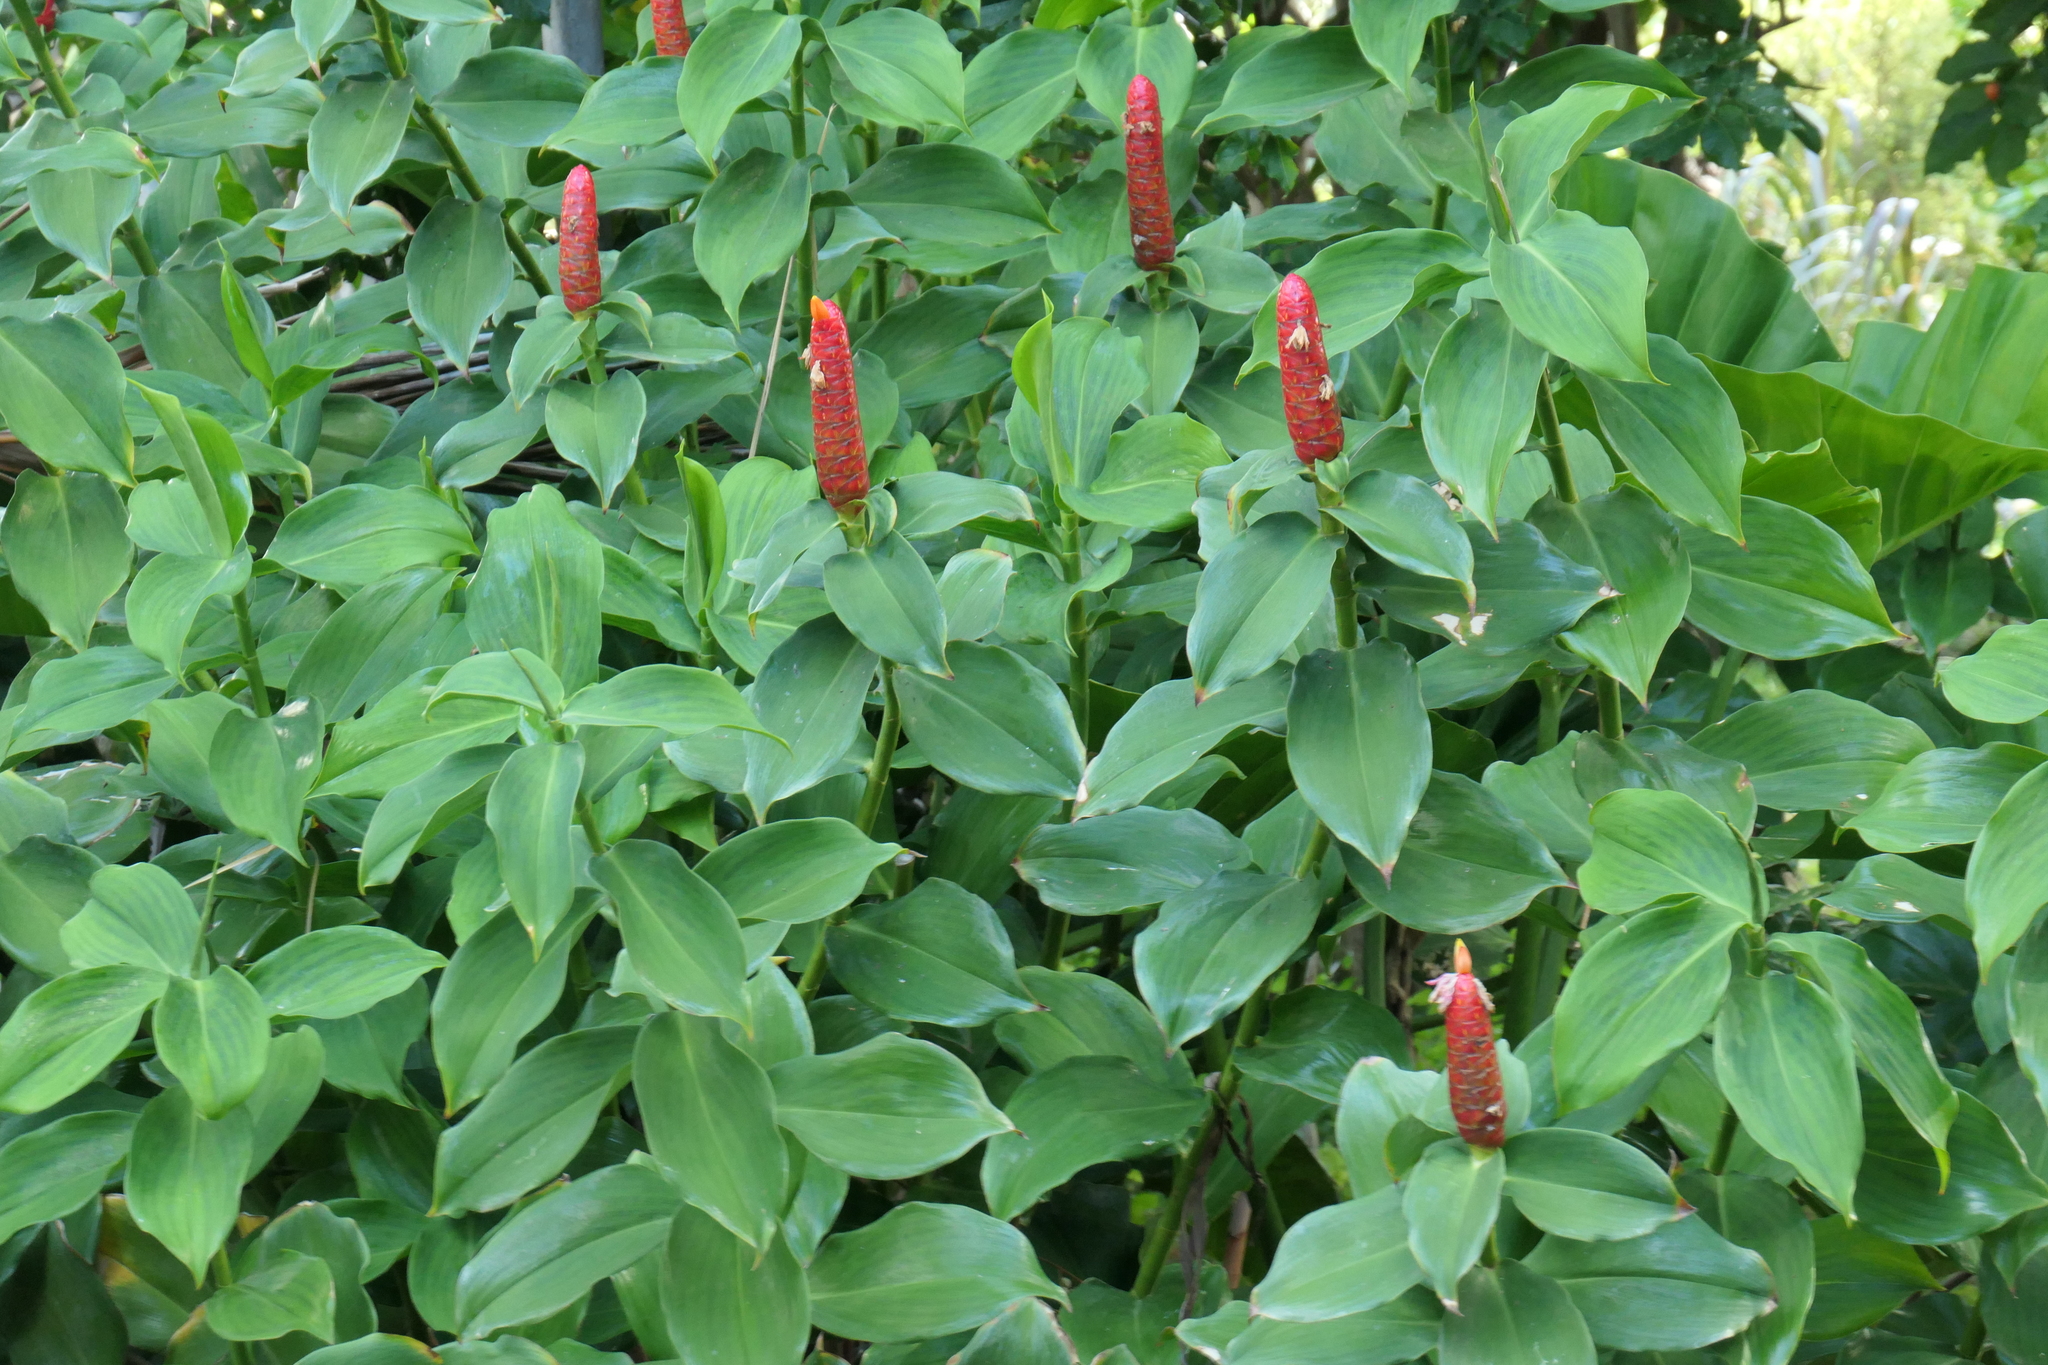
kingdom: Plantae
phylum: Tracheophyta
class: Liliopsida
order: Zingiberales
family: Costaceae
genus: Costus
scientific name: Costus woodsonii
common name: Scarlet spiral-ginger
